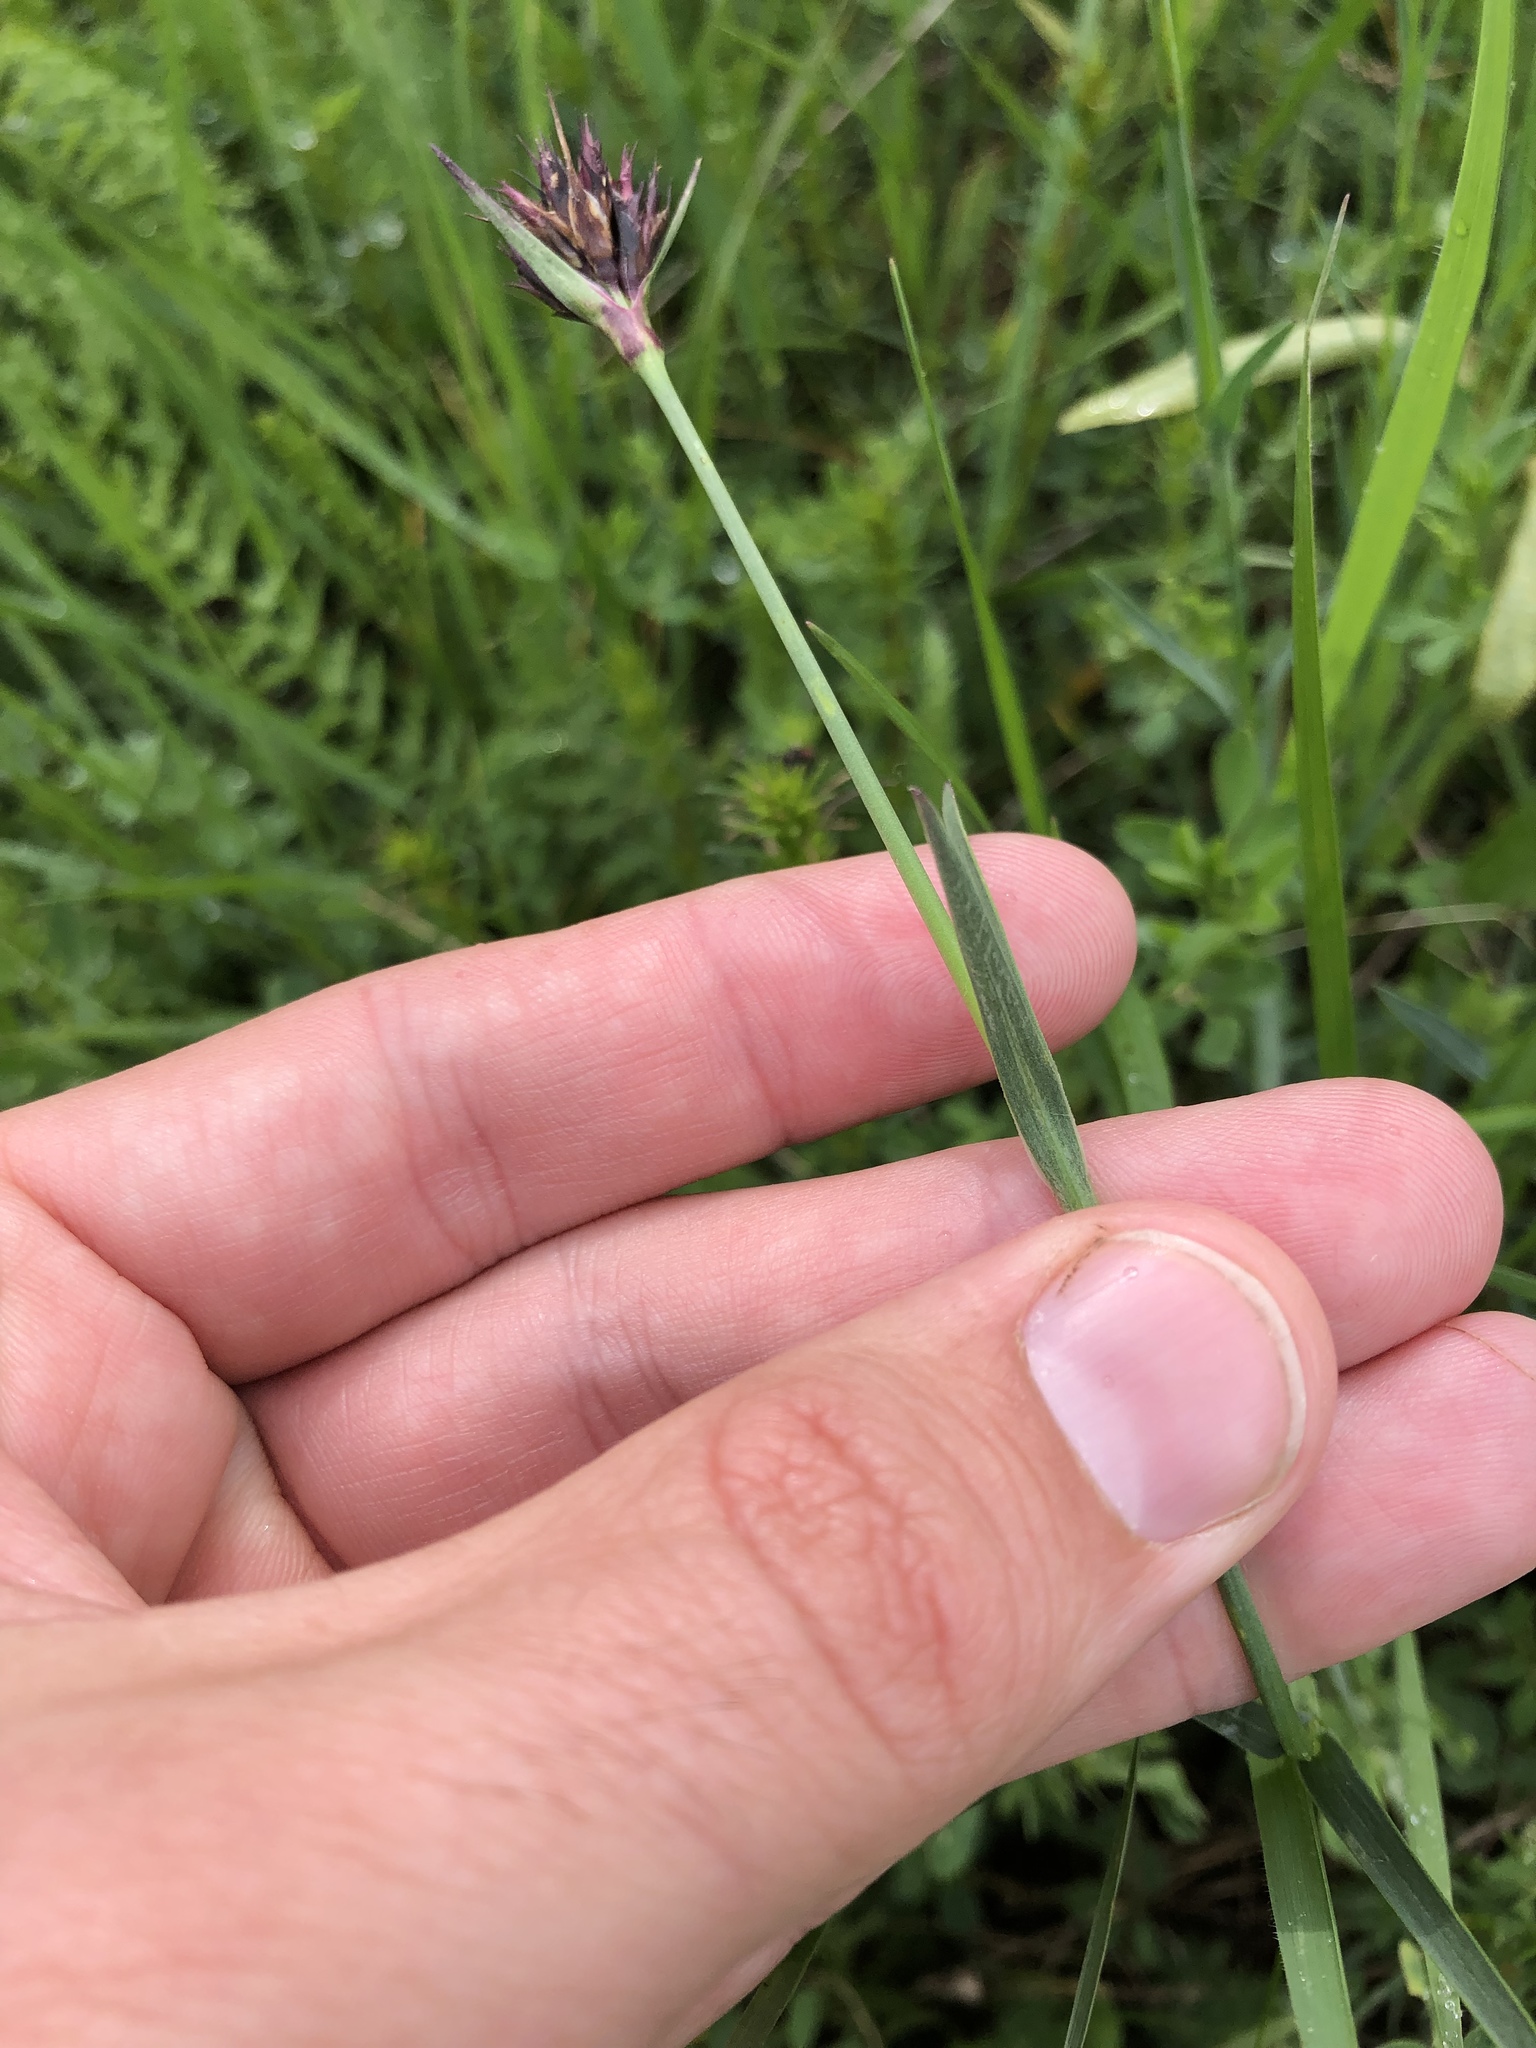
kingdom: Plantae
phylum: Tracheophyta
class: Magnoliopsida
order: Caryophyllales
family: Caryophyllaceae
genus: Dianthus
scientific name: Dianthus carthusianorum
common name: Carthusian pink
